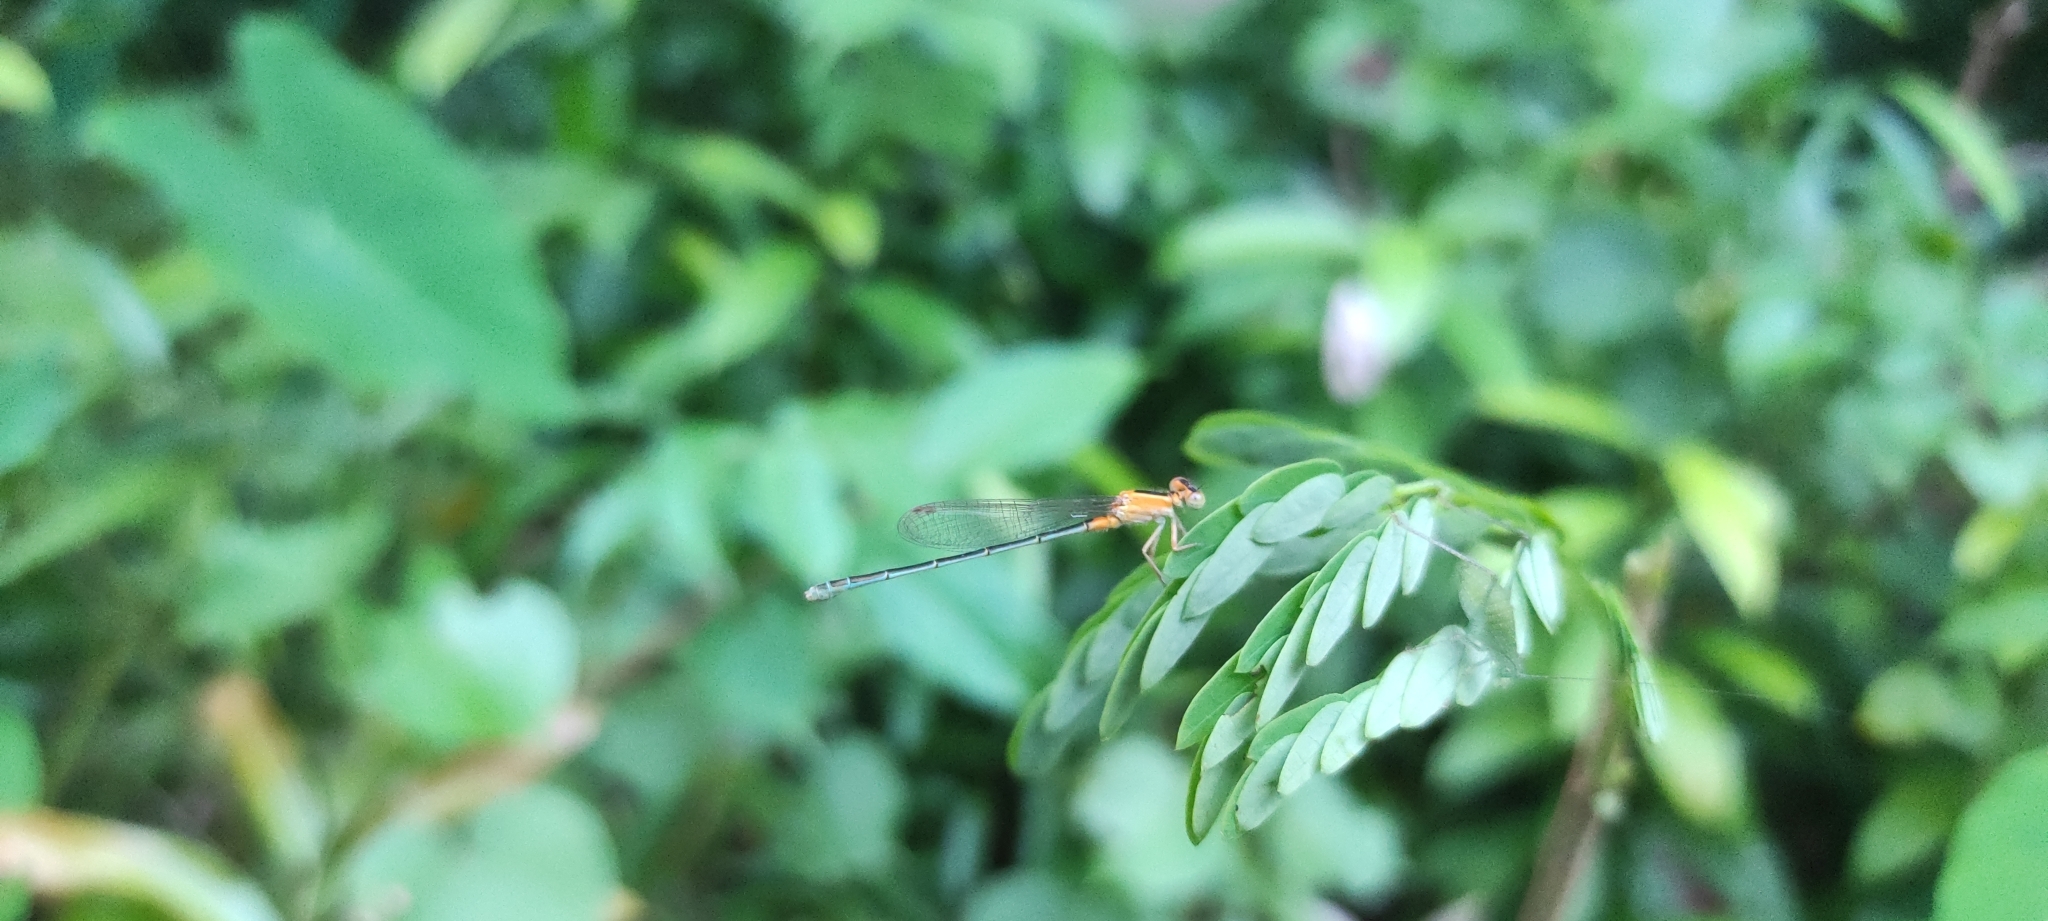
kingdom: Animalia
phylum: Arthropoda
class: Insecta
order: Odonata
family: Coenagrionidae
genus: Ischnura
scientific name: Ischnura senegalensis
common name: Tropical bluetail
